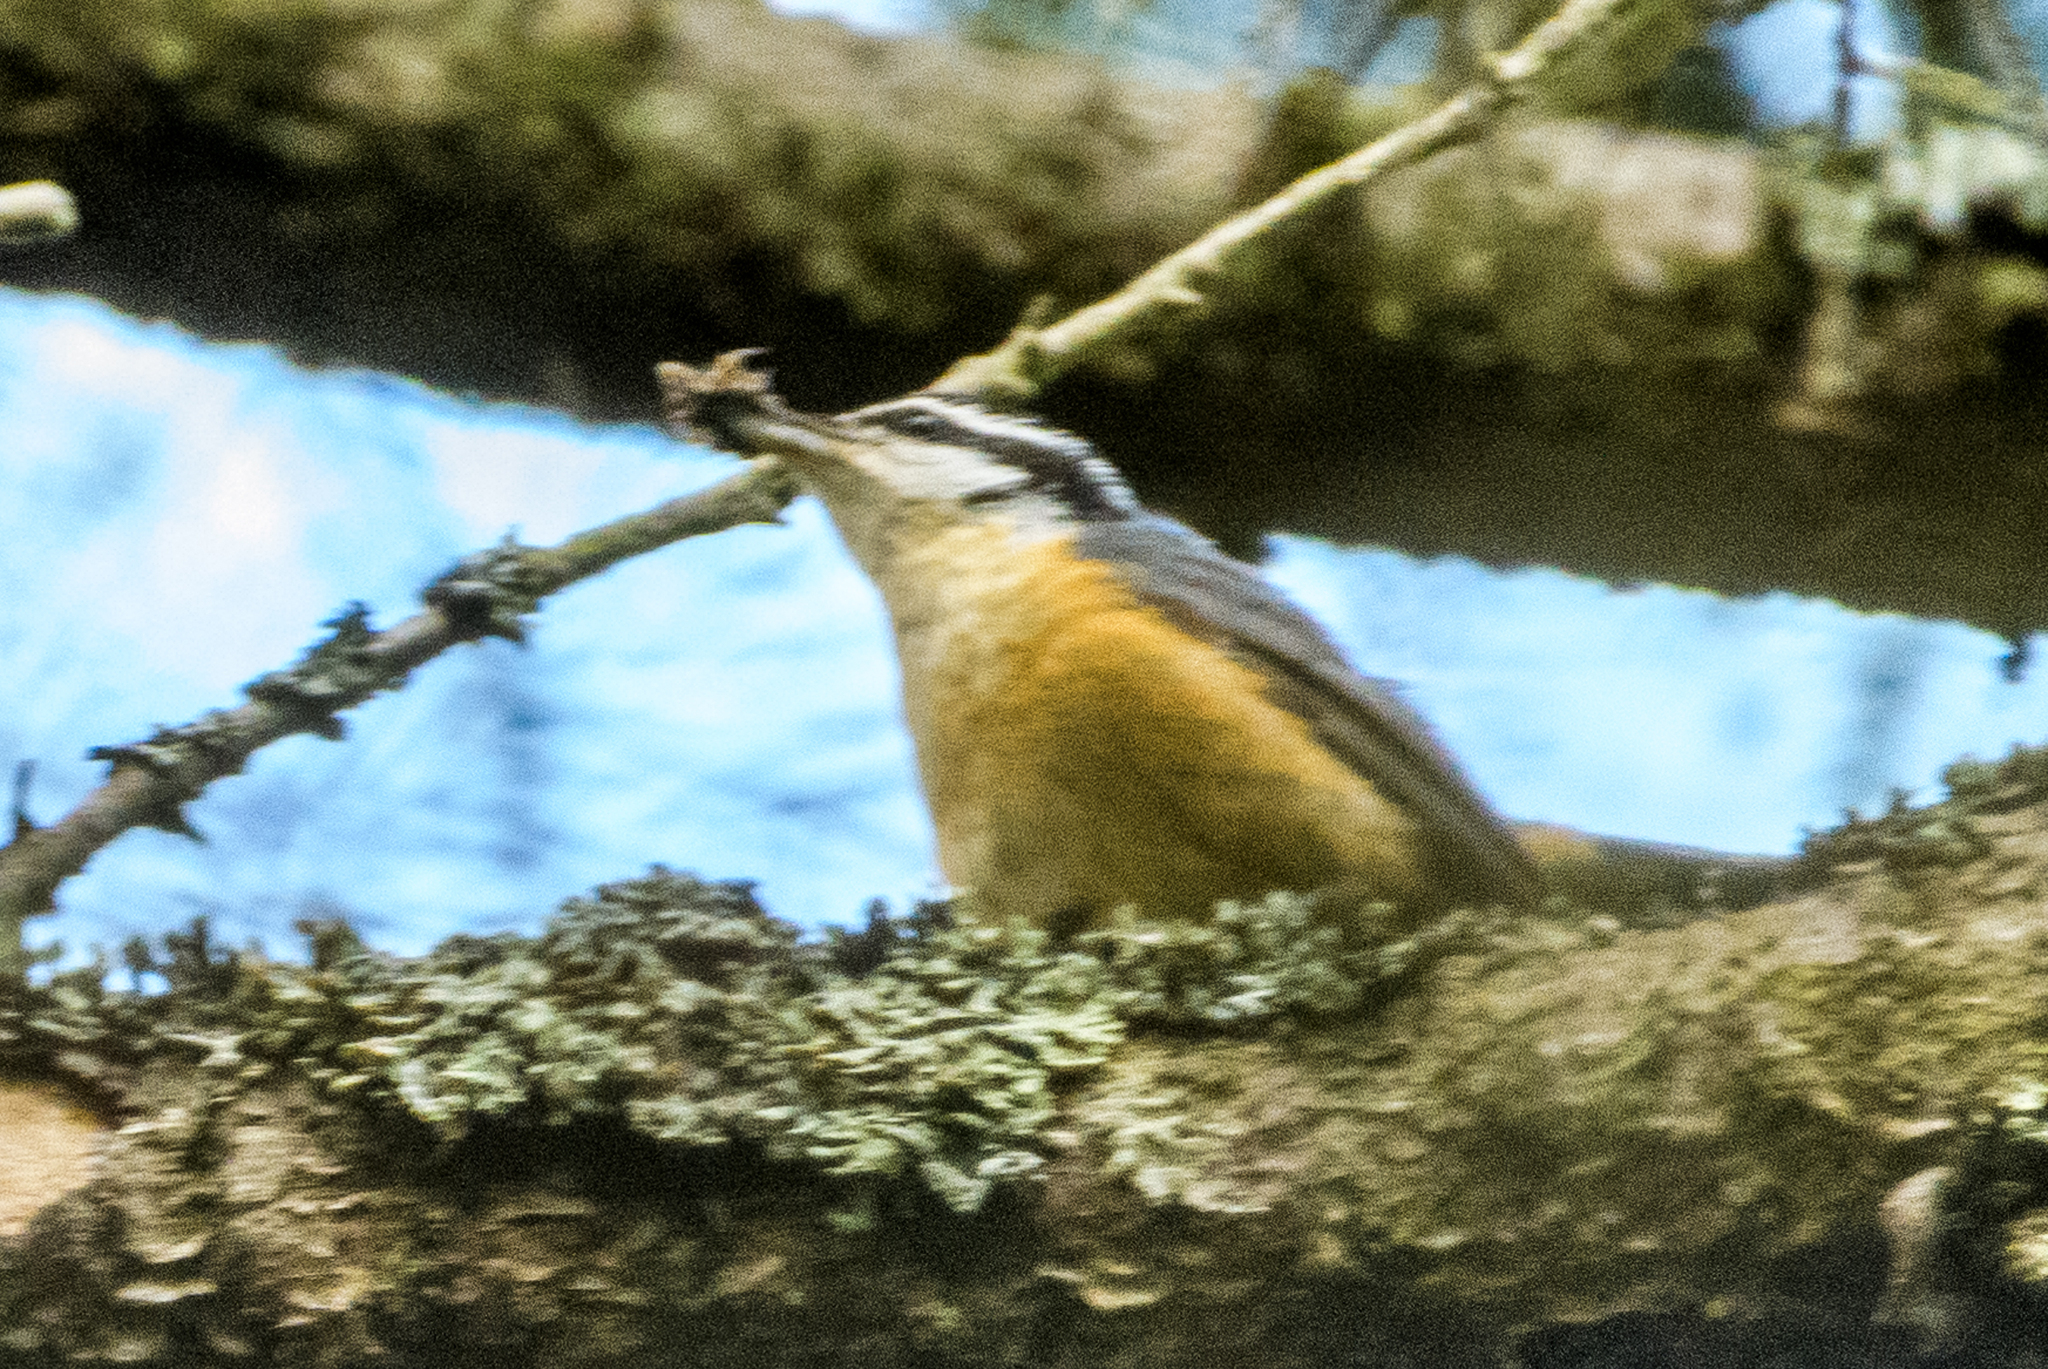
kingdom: Animalia
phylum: Chordata
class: Aves
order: Passeriformes
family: Sittidae
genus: Sitta
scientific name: Sitta canadensis
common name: Red-breasted nuthatch
